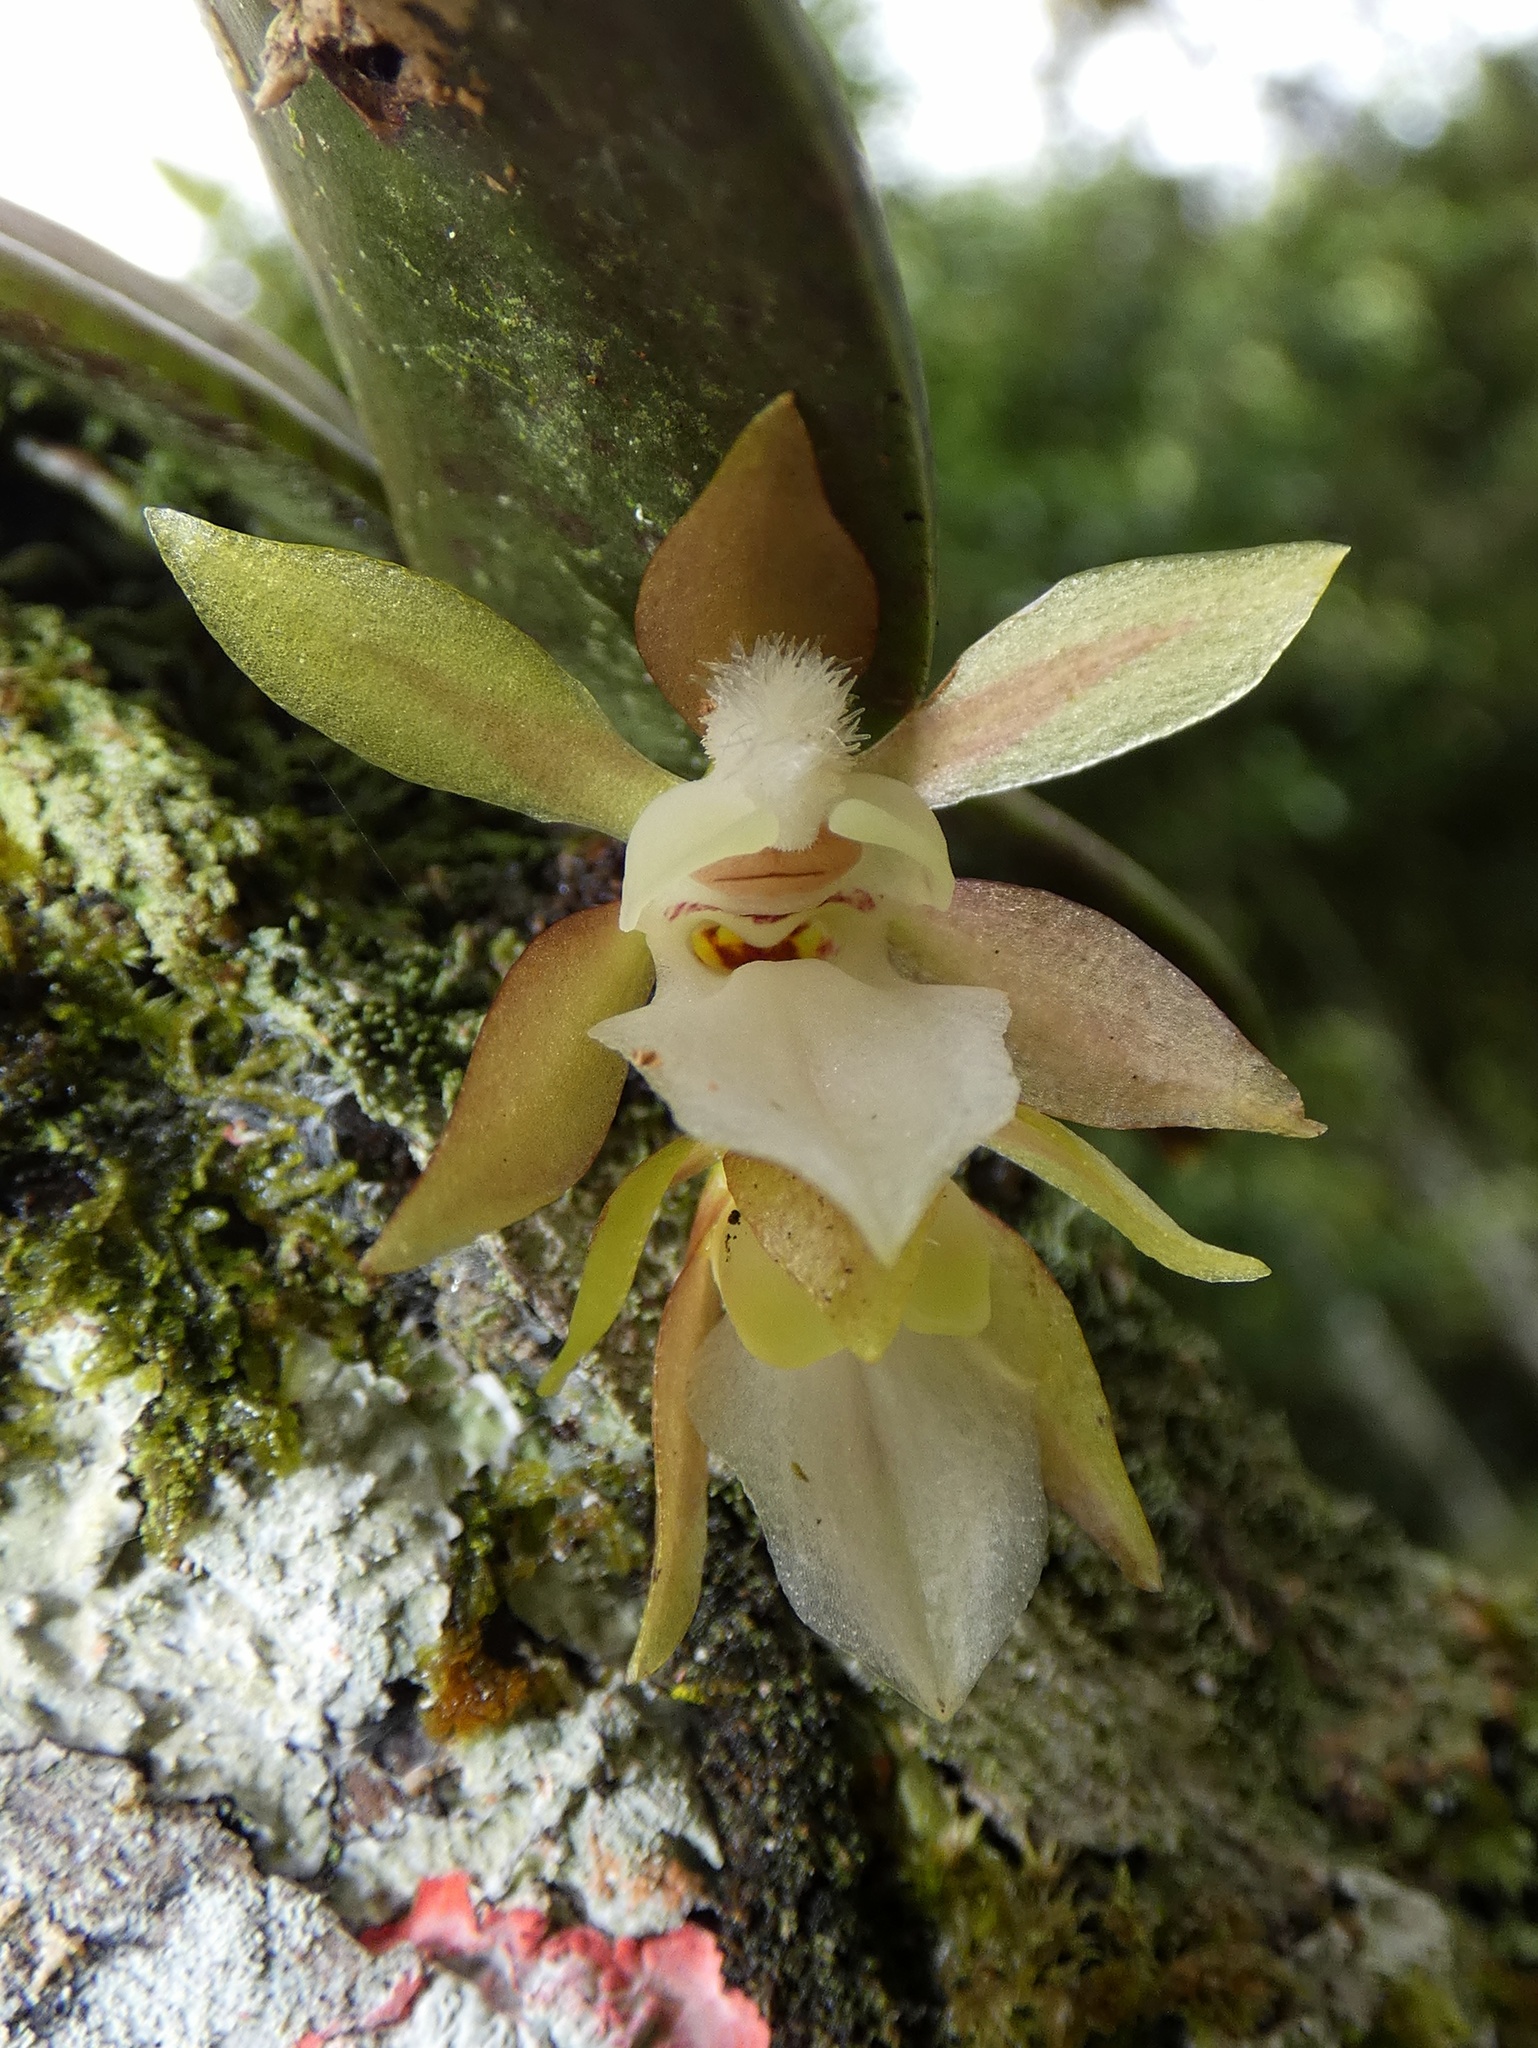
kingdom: Plantae
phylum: Tracheophyta
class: Liliopsida
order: Asparagales
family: Orchidaceae
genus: Trichocentrum
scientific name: Trichocentrum capistratum
